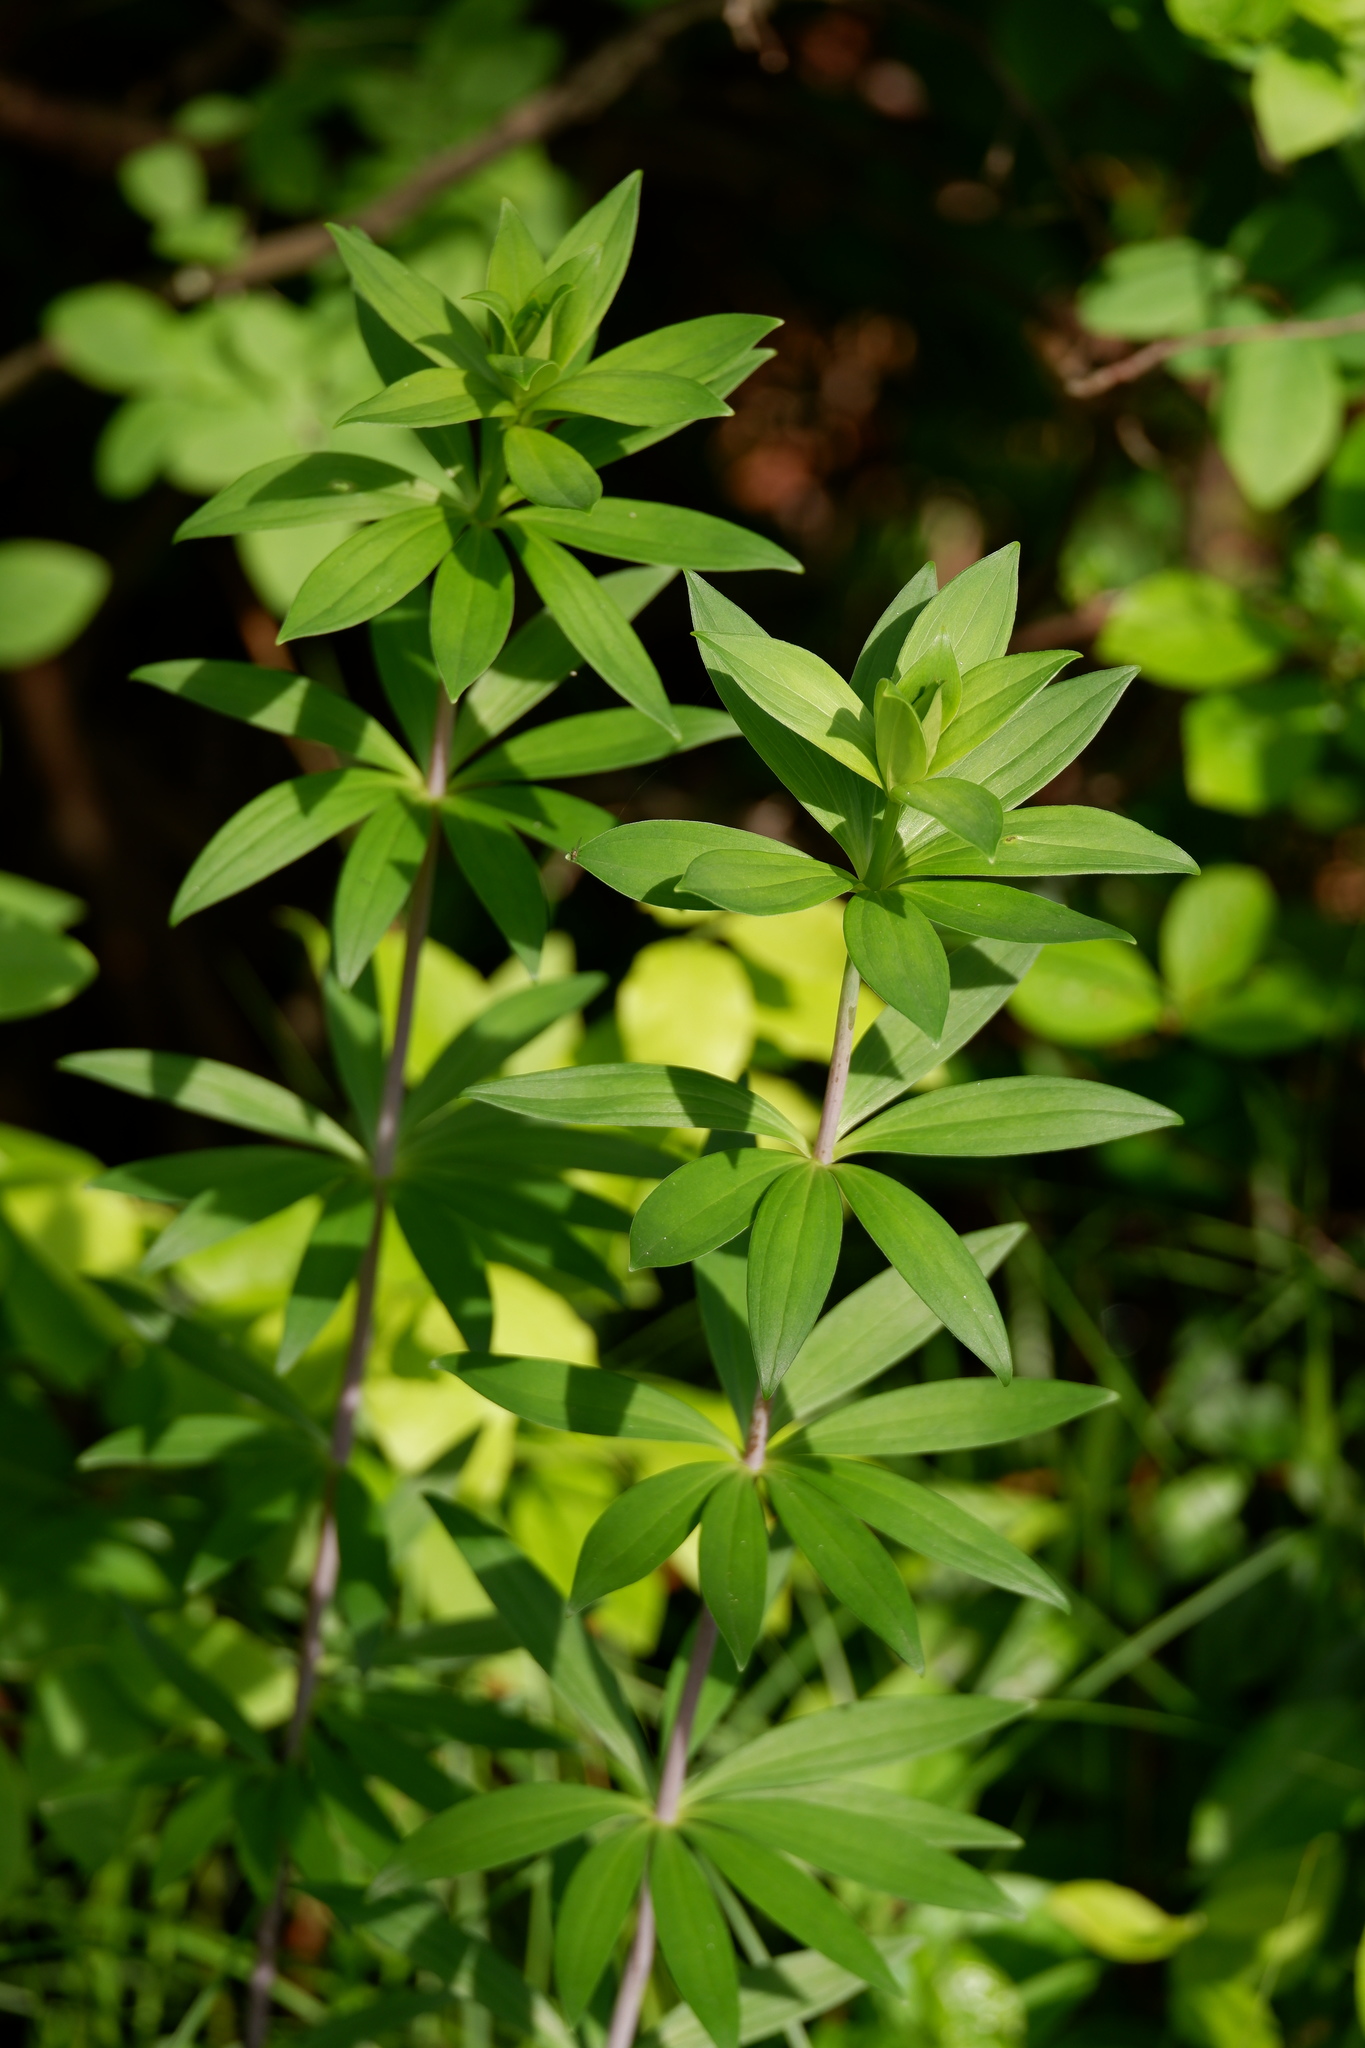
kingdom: Plantae
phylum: Tracheophyta
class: Liliopsida
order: Liliales
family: Liliaceae
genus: Lilium
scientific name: Lilium superbum
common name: American turk's-cap lily
